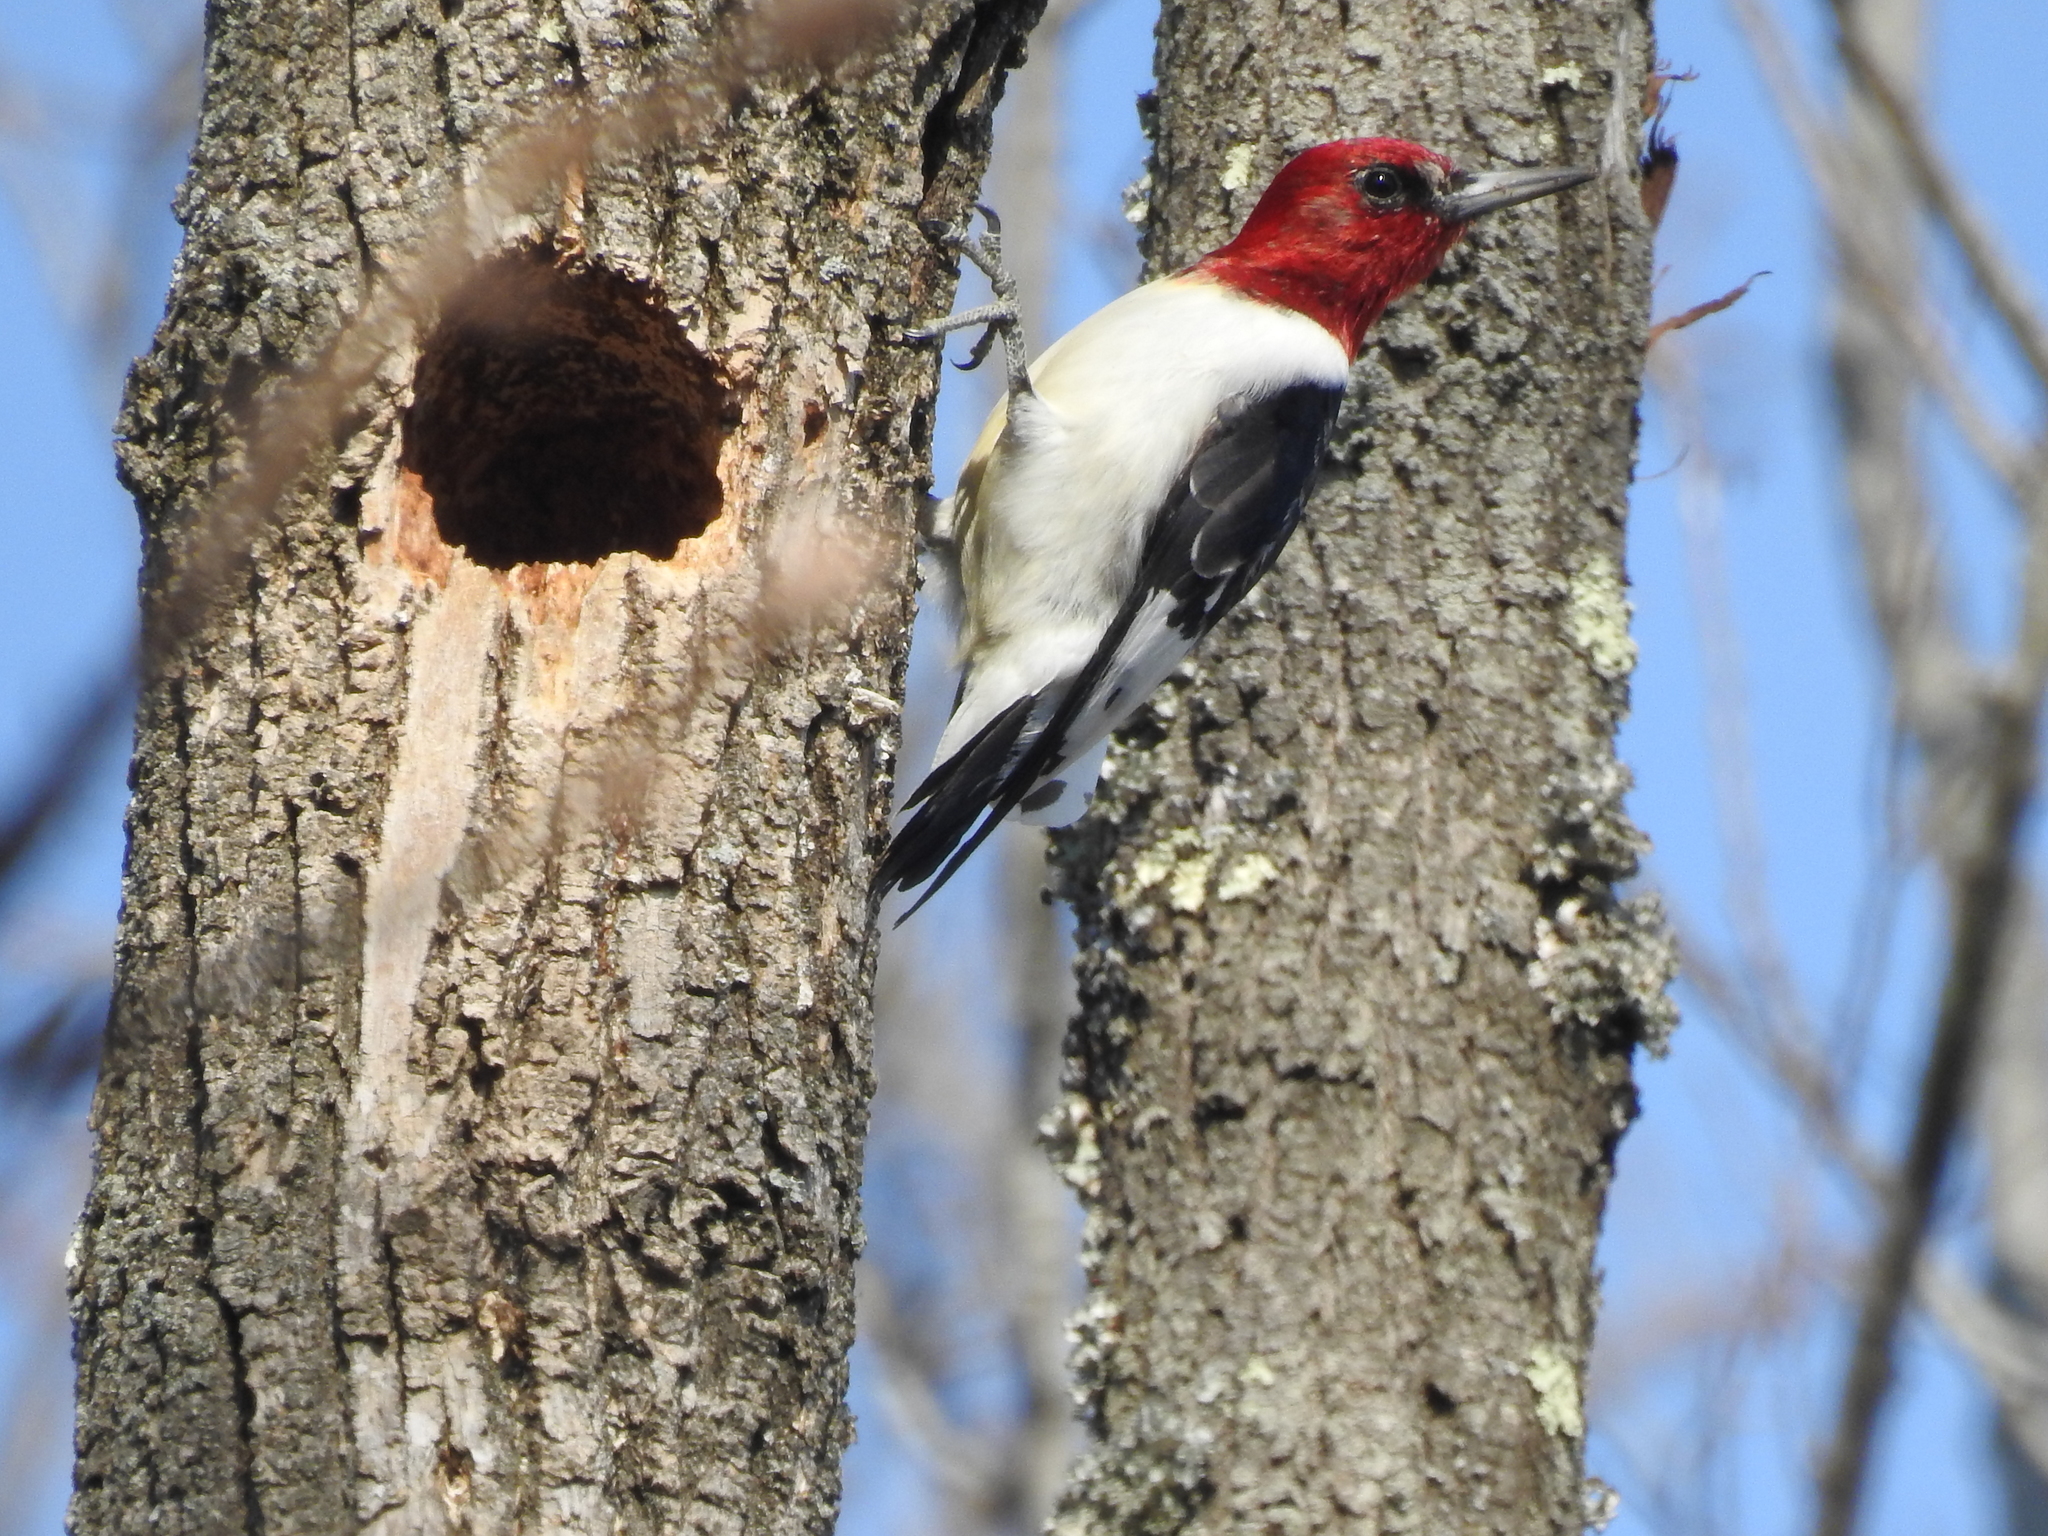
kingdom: Animalia
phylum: Chordata
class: Aves
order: Piciformes
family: Picidae
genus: Melanerpes
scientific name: Melanerpes erythrocephalus
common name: Red-headed woodpecker
